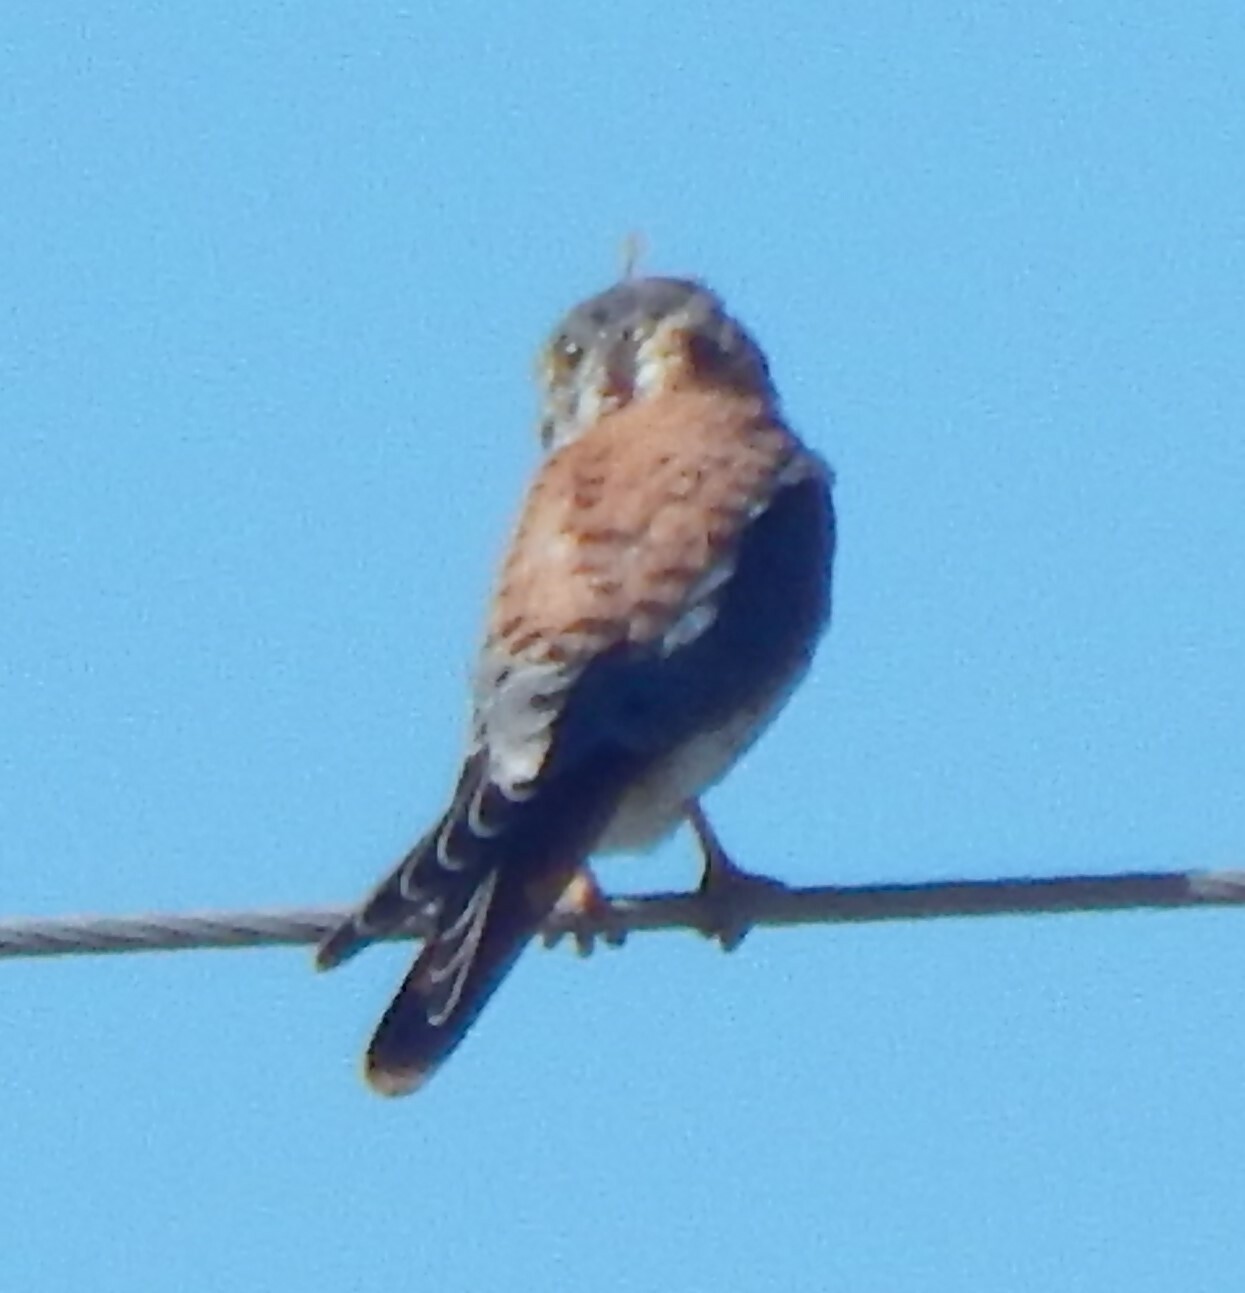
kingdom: Animalia
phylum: Chordata
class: Aves
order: Falconiformes
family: Falconidae
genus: Falco
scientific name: Falco sparverius
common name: American kestrel
